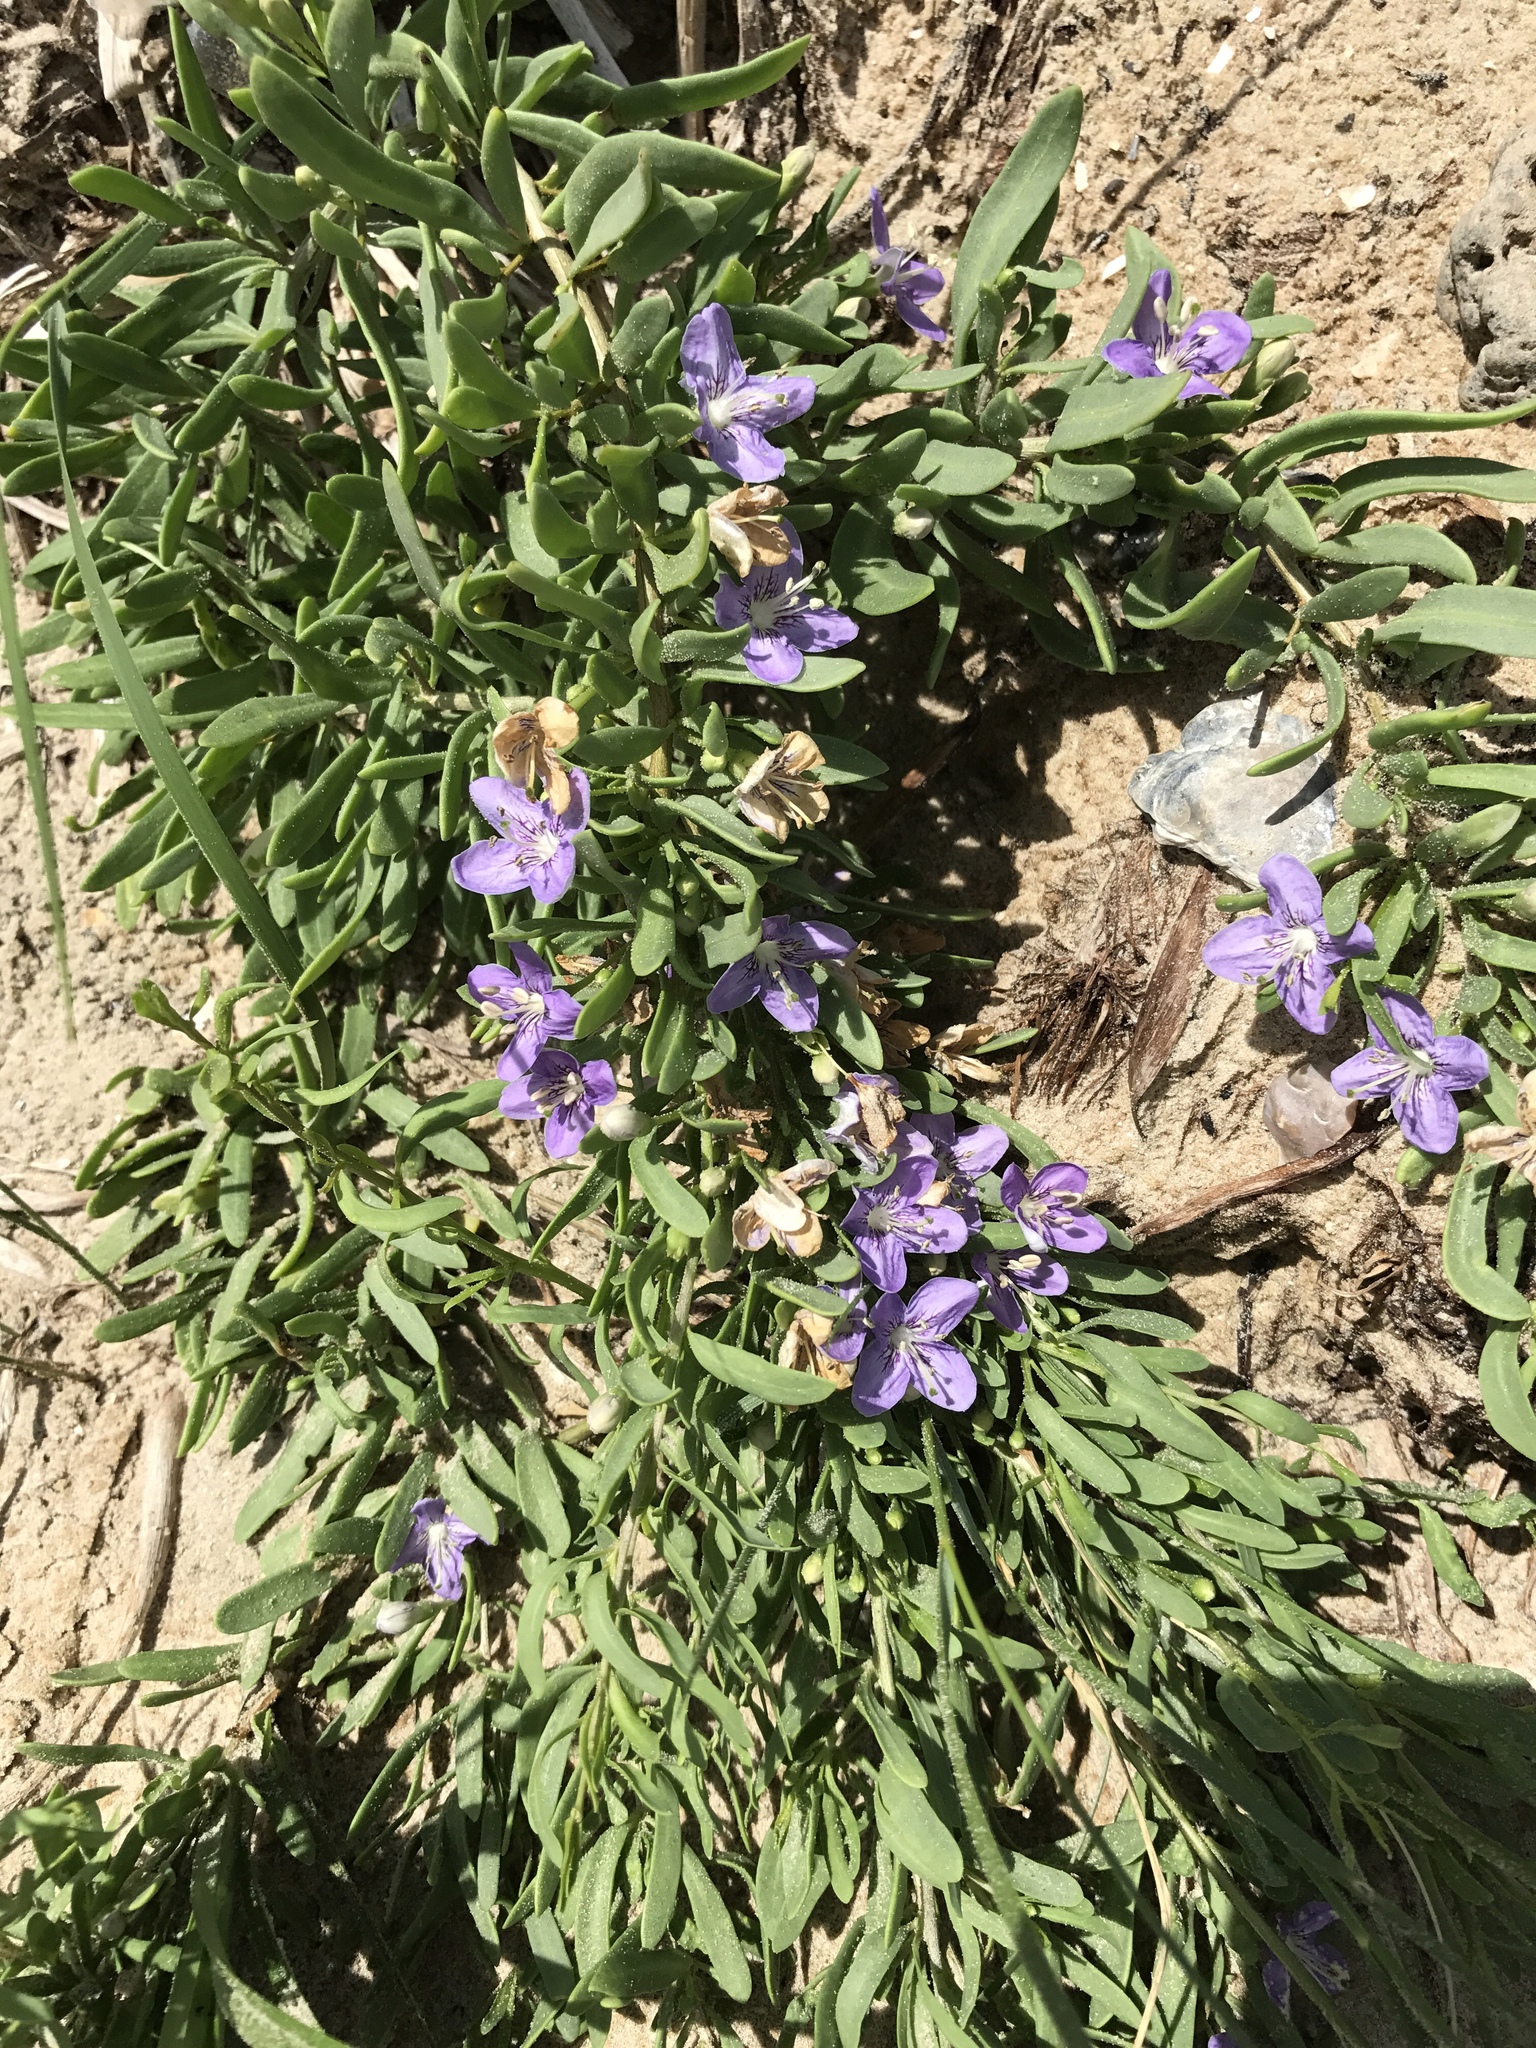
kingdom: Plantae
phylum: Tracheophyta
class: Magnoliopsida
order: Solanales
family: Solanaceae
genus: Lycium
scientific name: Lycium carolinianum
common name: Christmasberry
